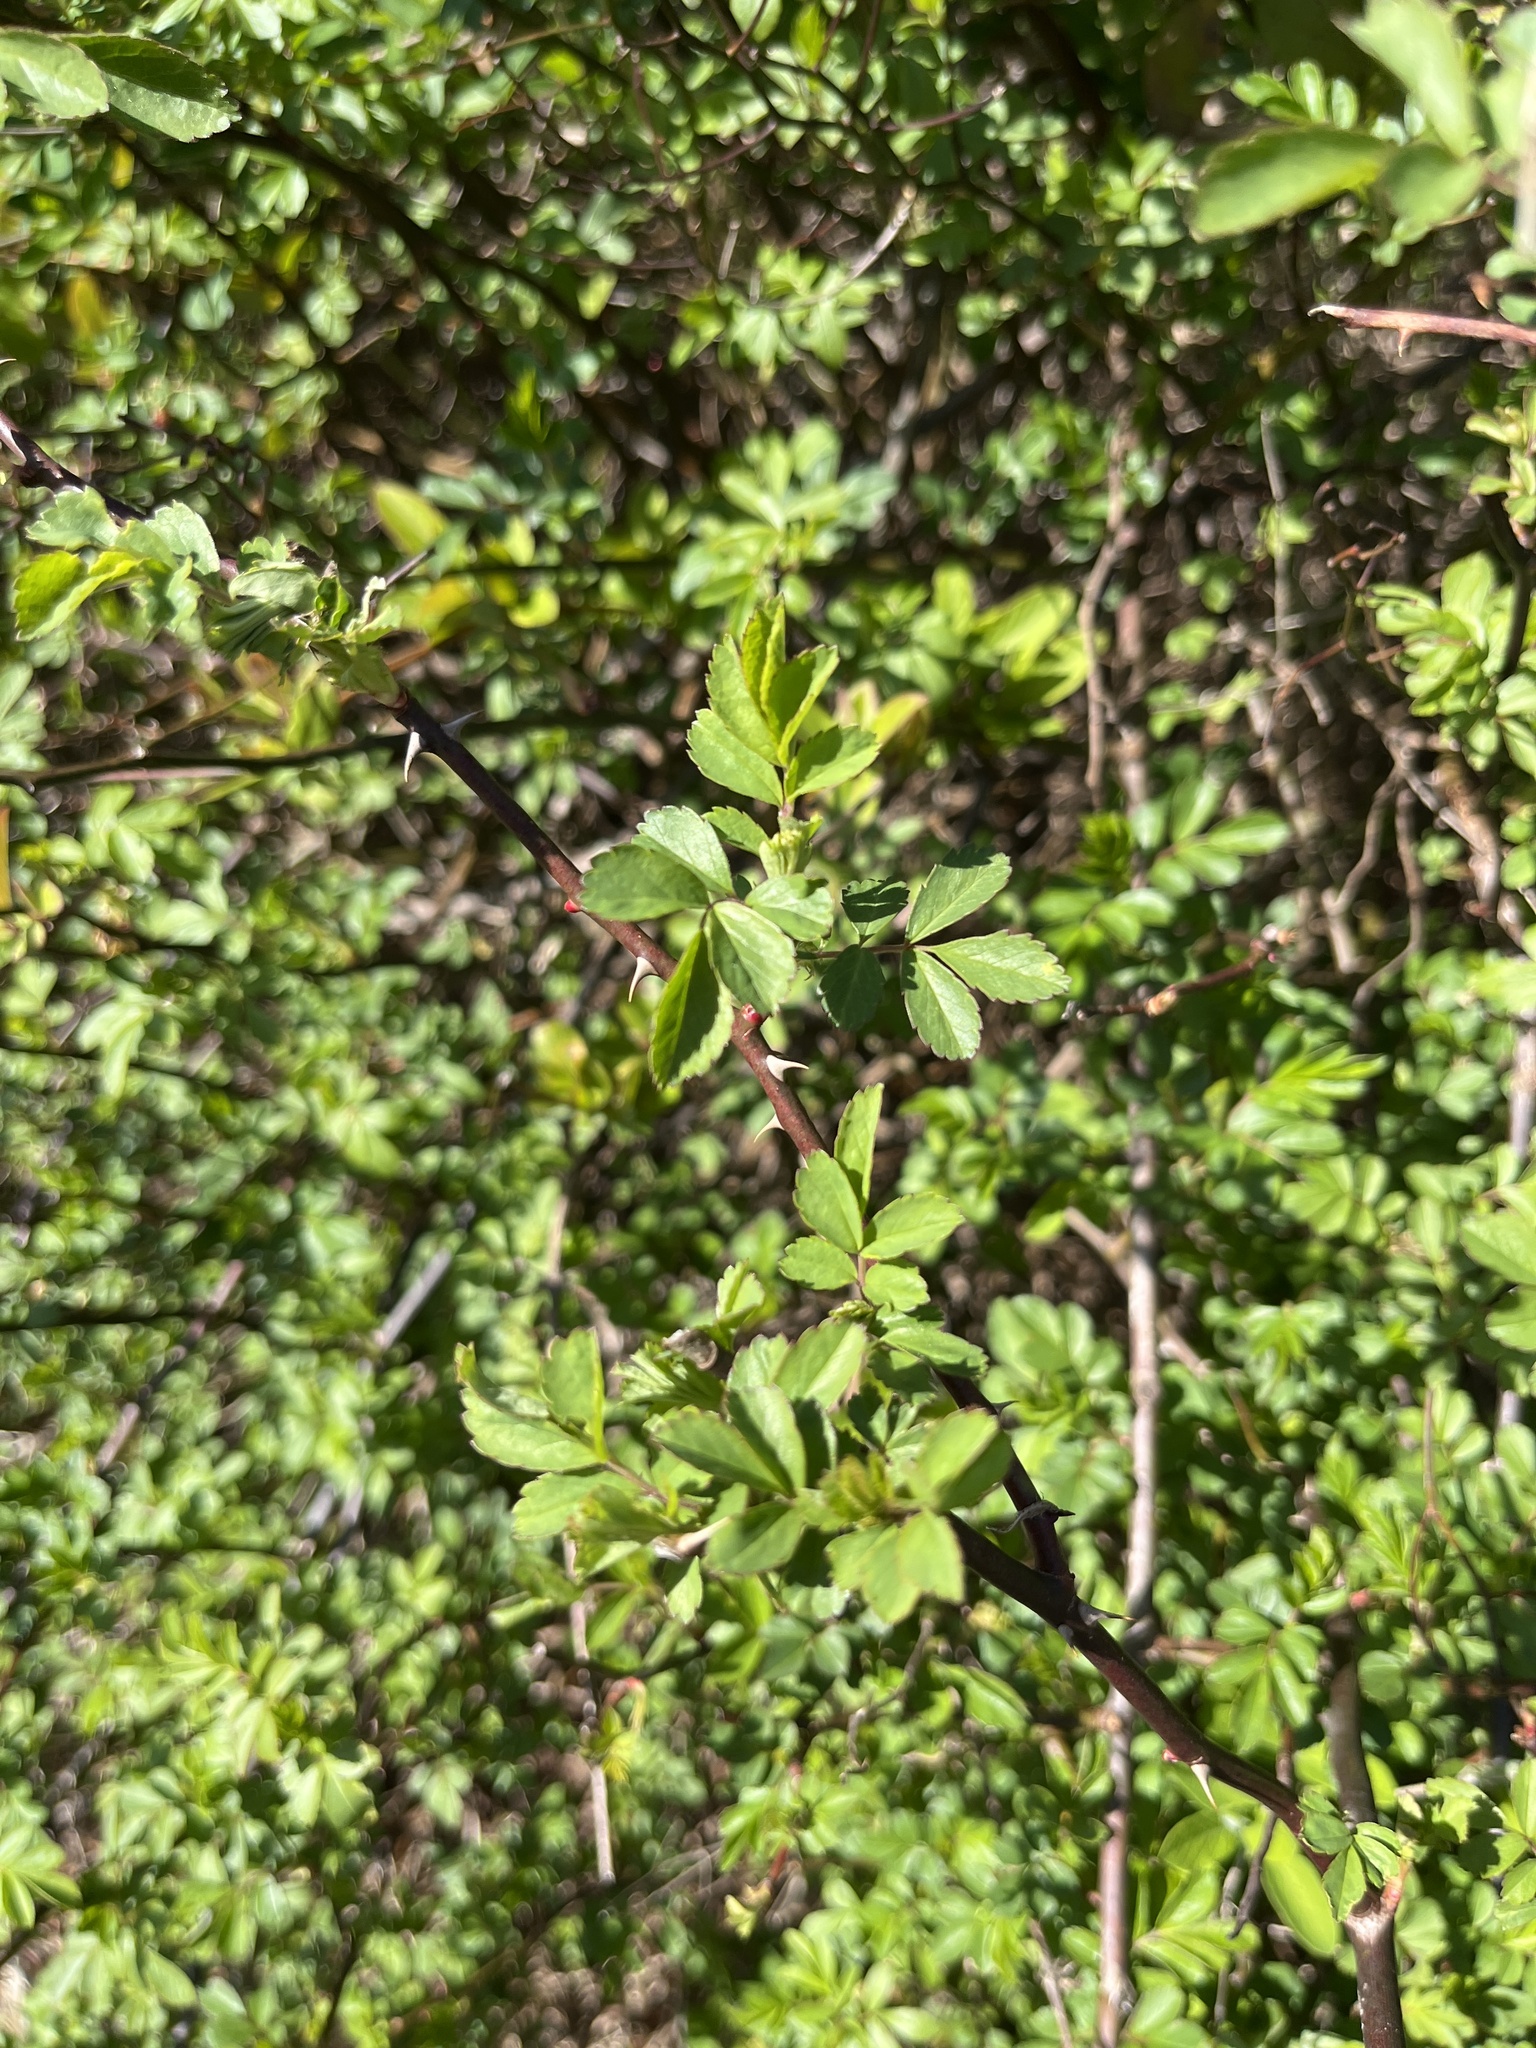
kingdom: Plantae
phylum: Tracheophyta
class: Magnoliopsida
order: Rosales
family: Rosaceae
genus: Rosa
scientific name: Rosa multiflora
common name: Multiflora rose
